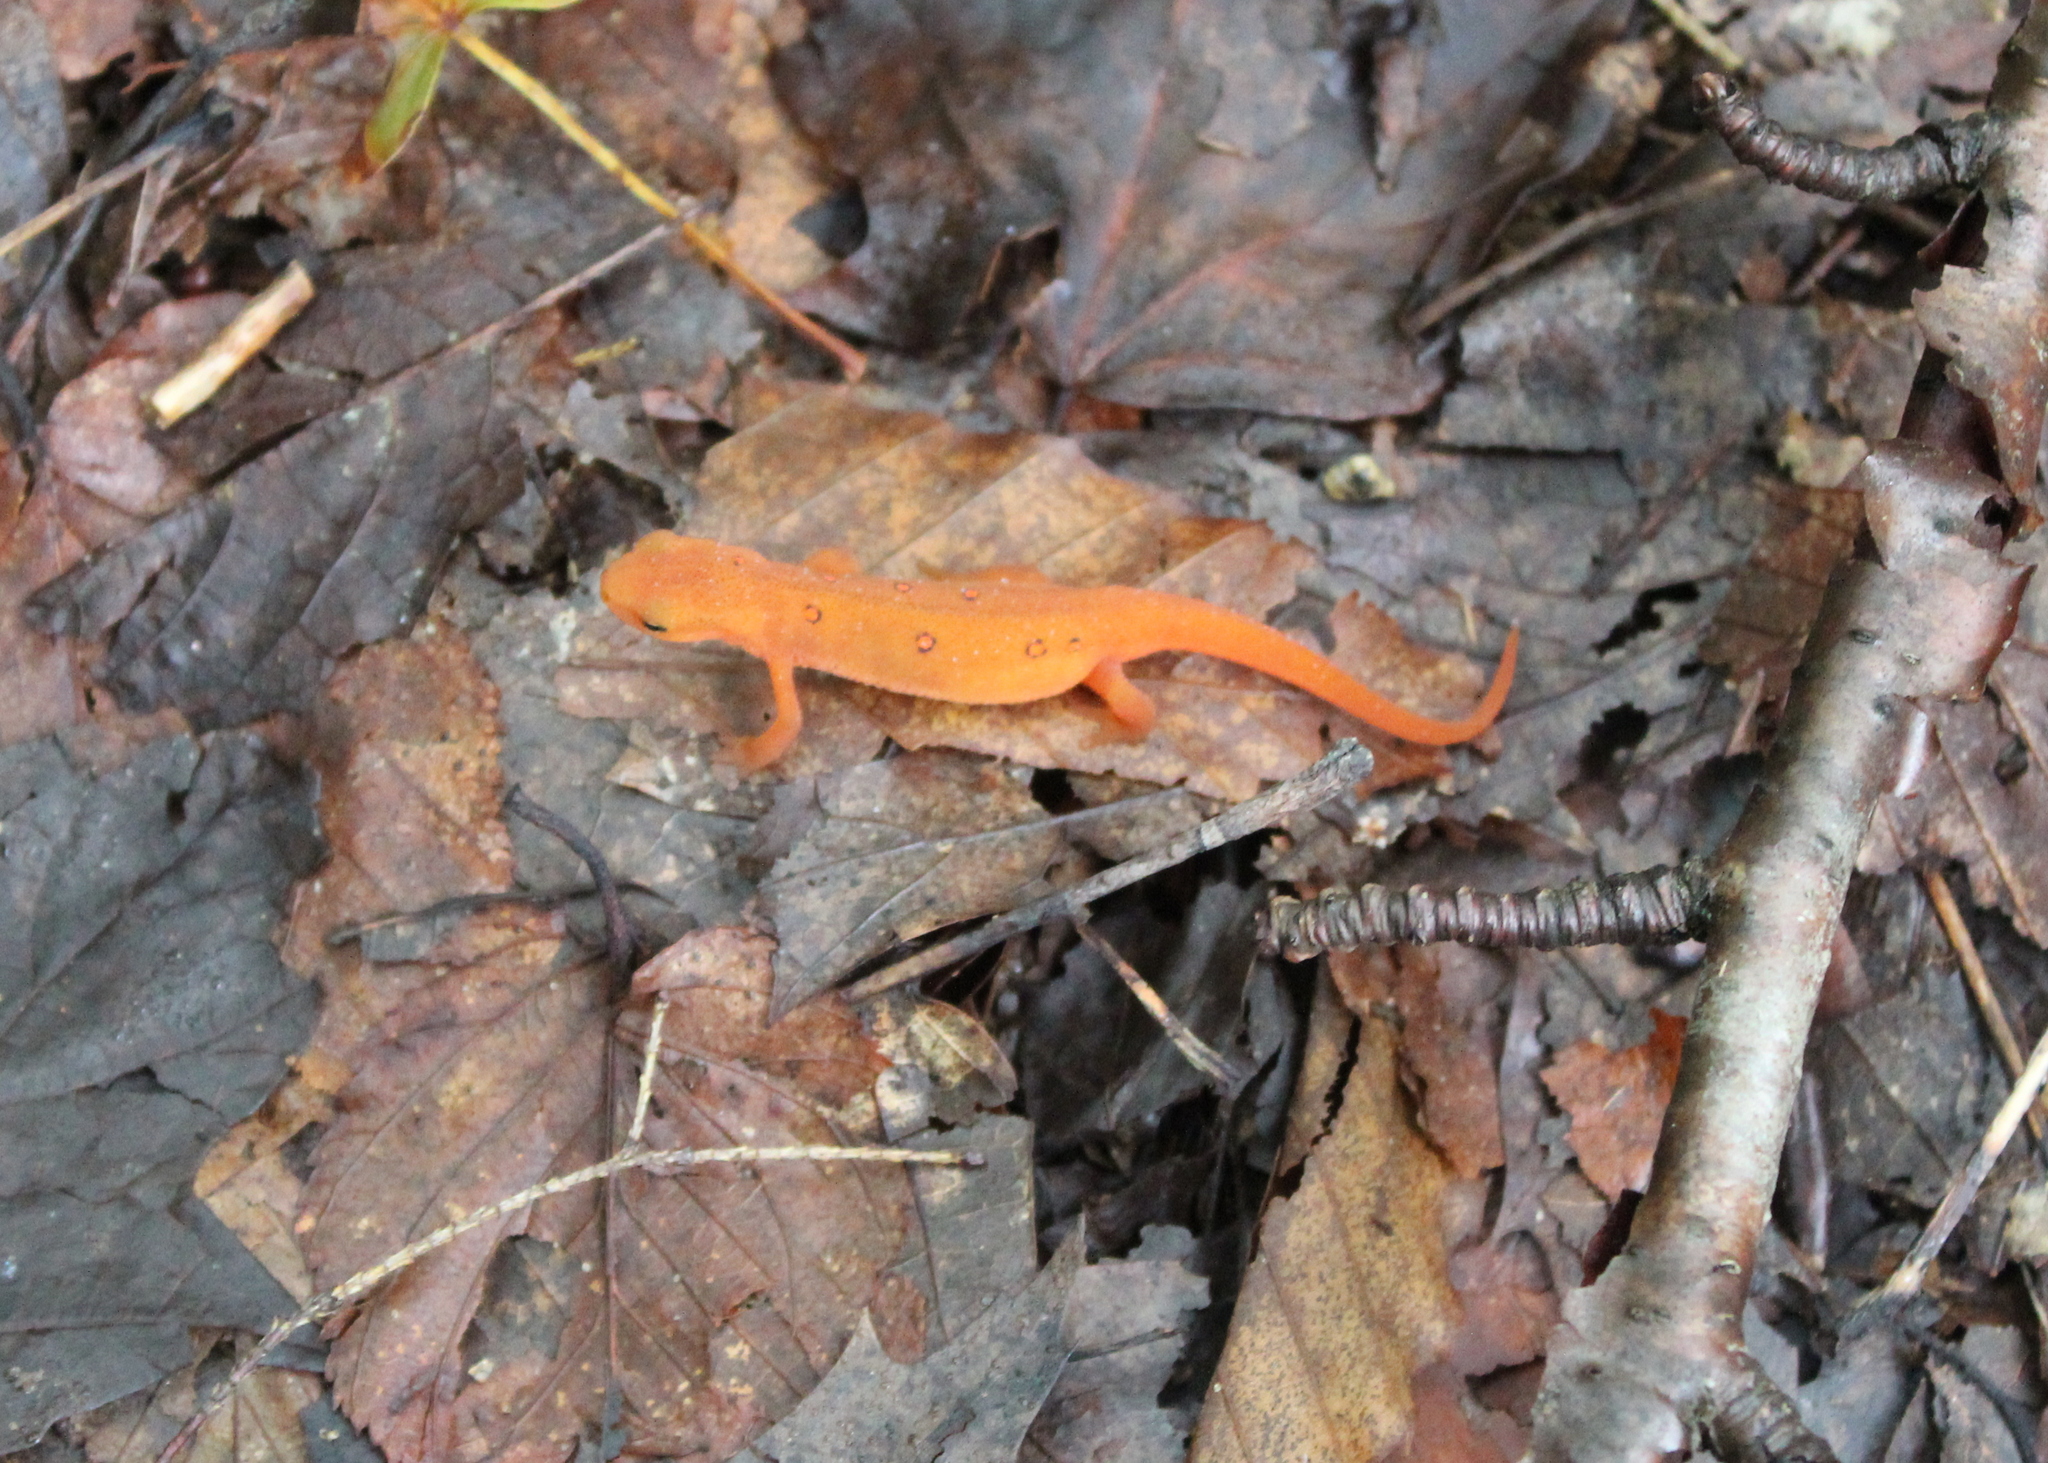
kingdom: Animalia
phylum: Chordata
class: Amphibia
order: Caudata
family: Salamandridae
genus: Notophthalmus
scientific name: Notophthalmus viridescens
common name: Eastern newt
